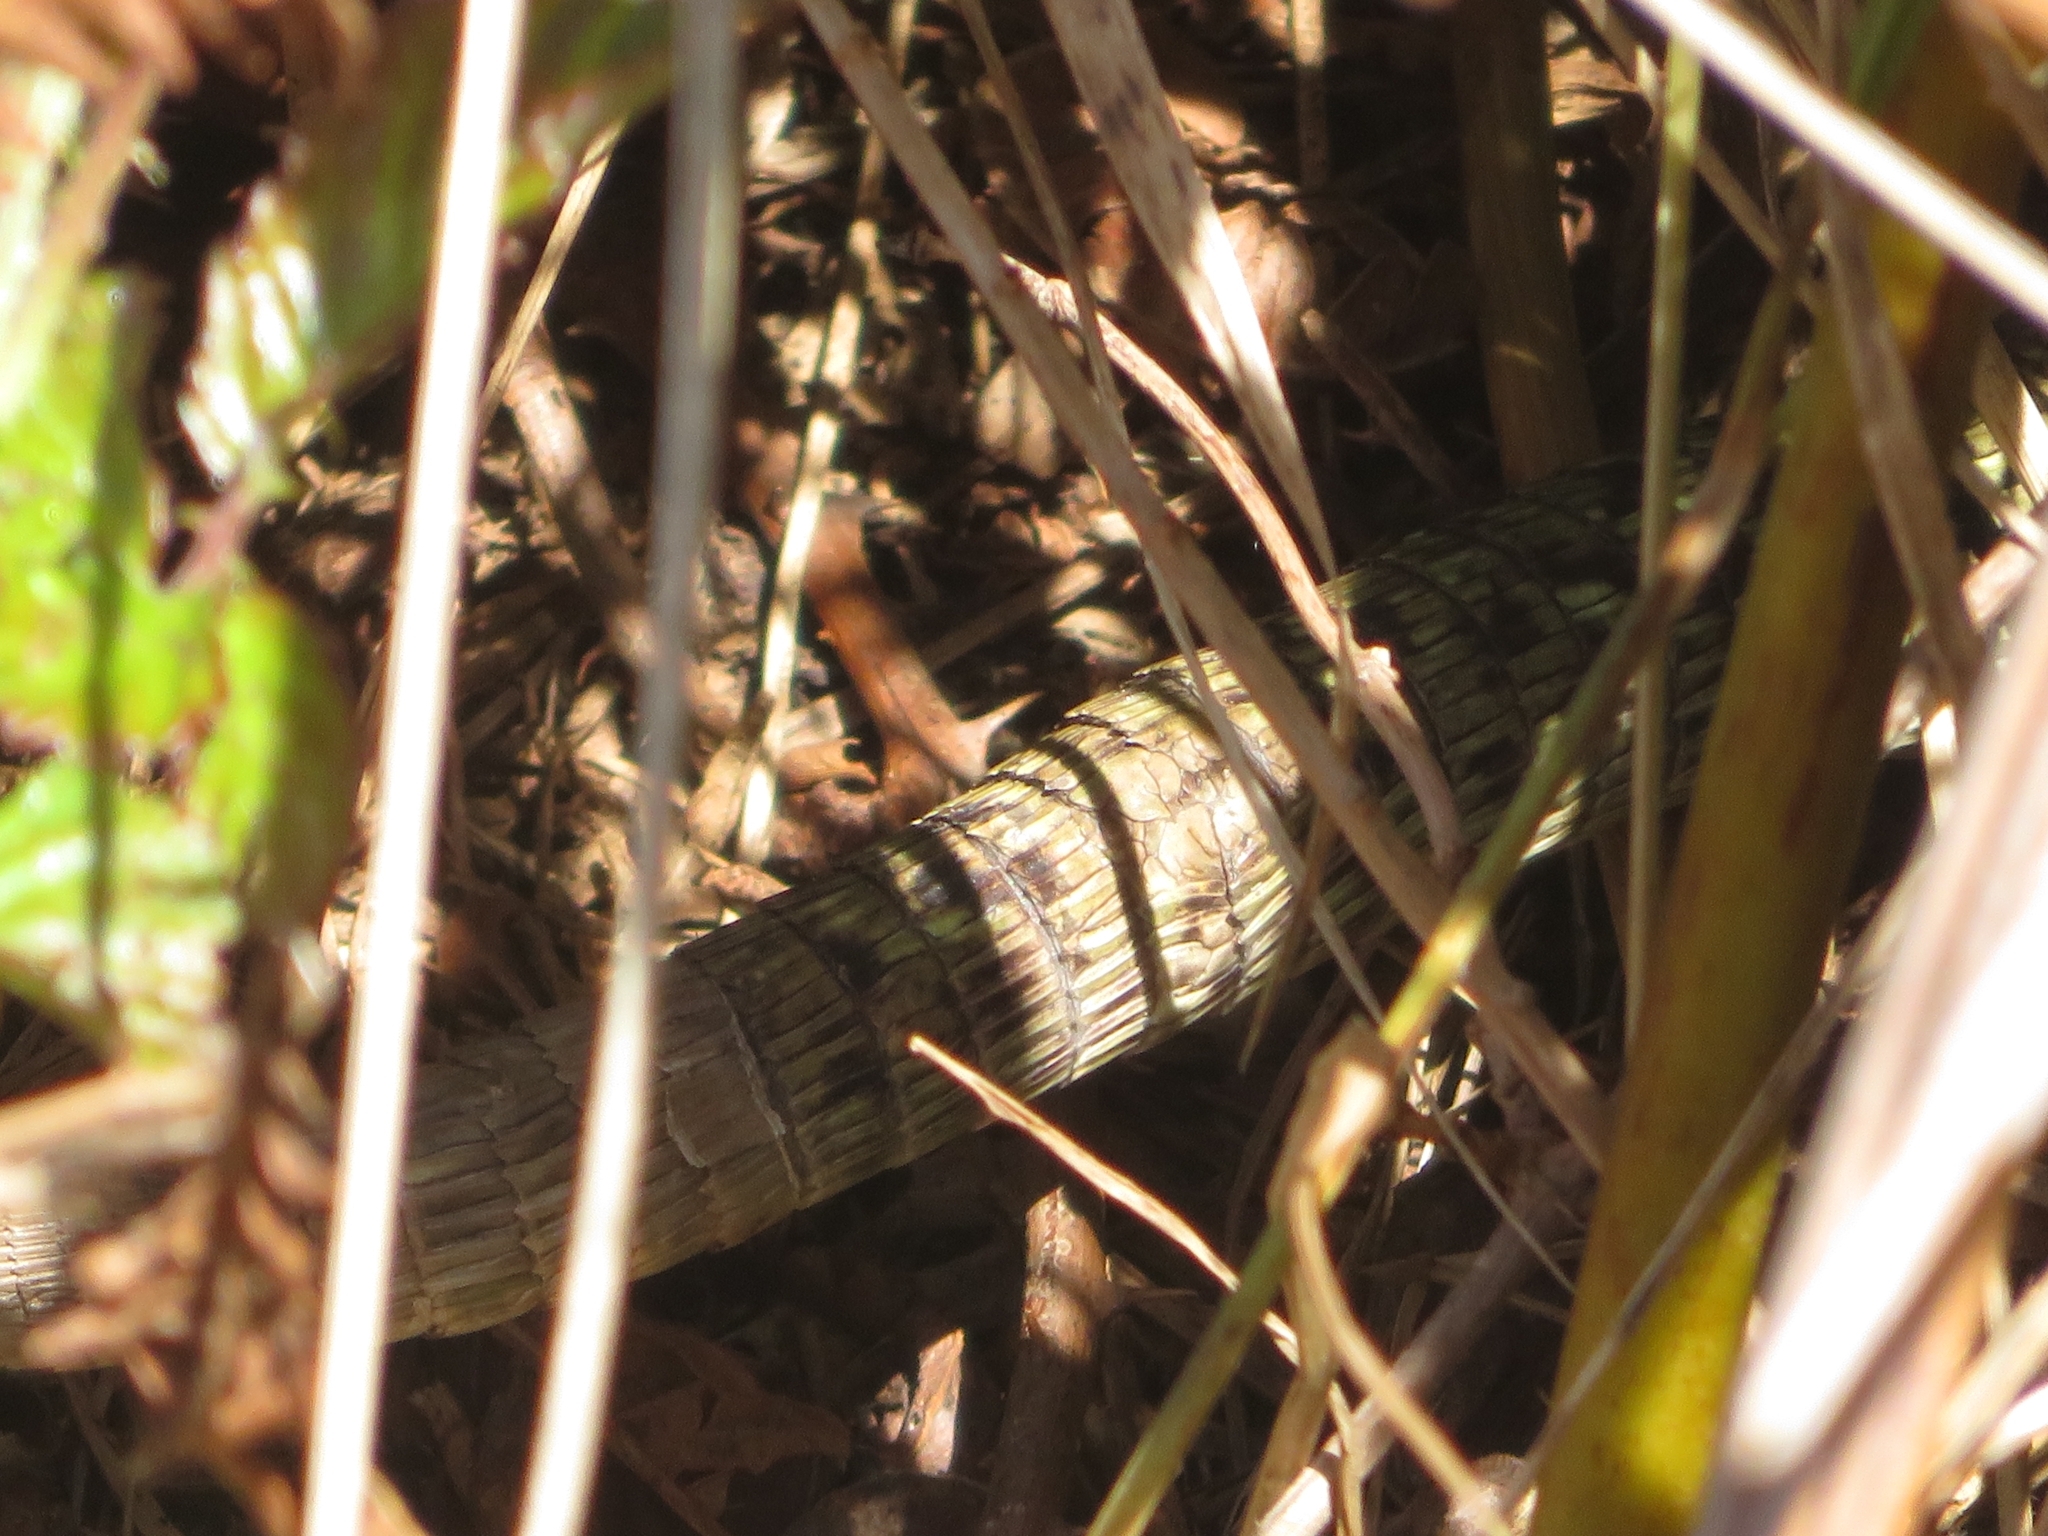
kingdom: Animalia
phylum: Chordata
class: Squamata
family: Lacertidae
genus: Timon
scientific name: Timon lepidus
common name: Ocellated lizard
